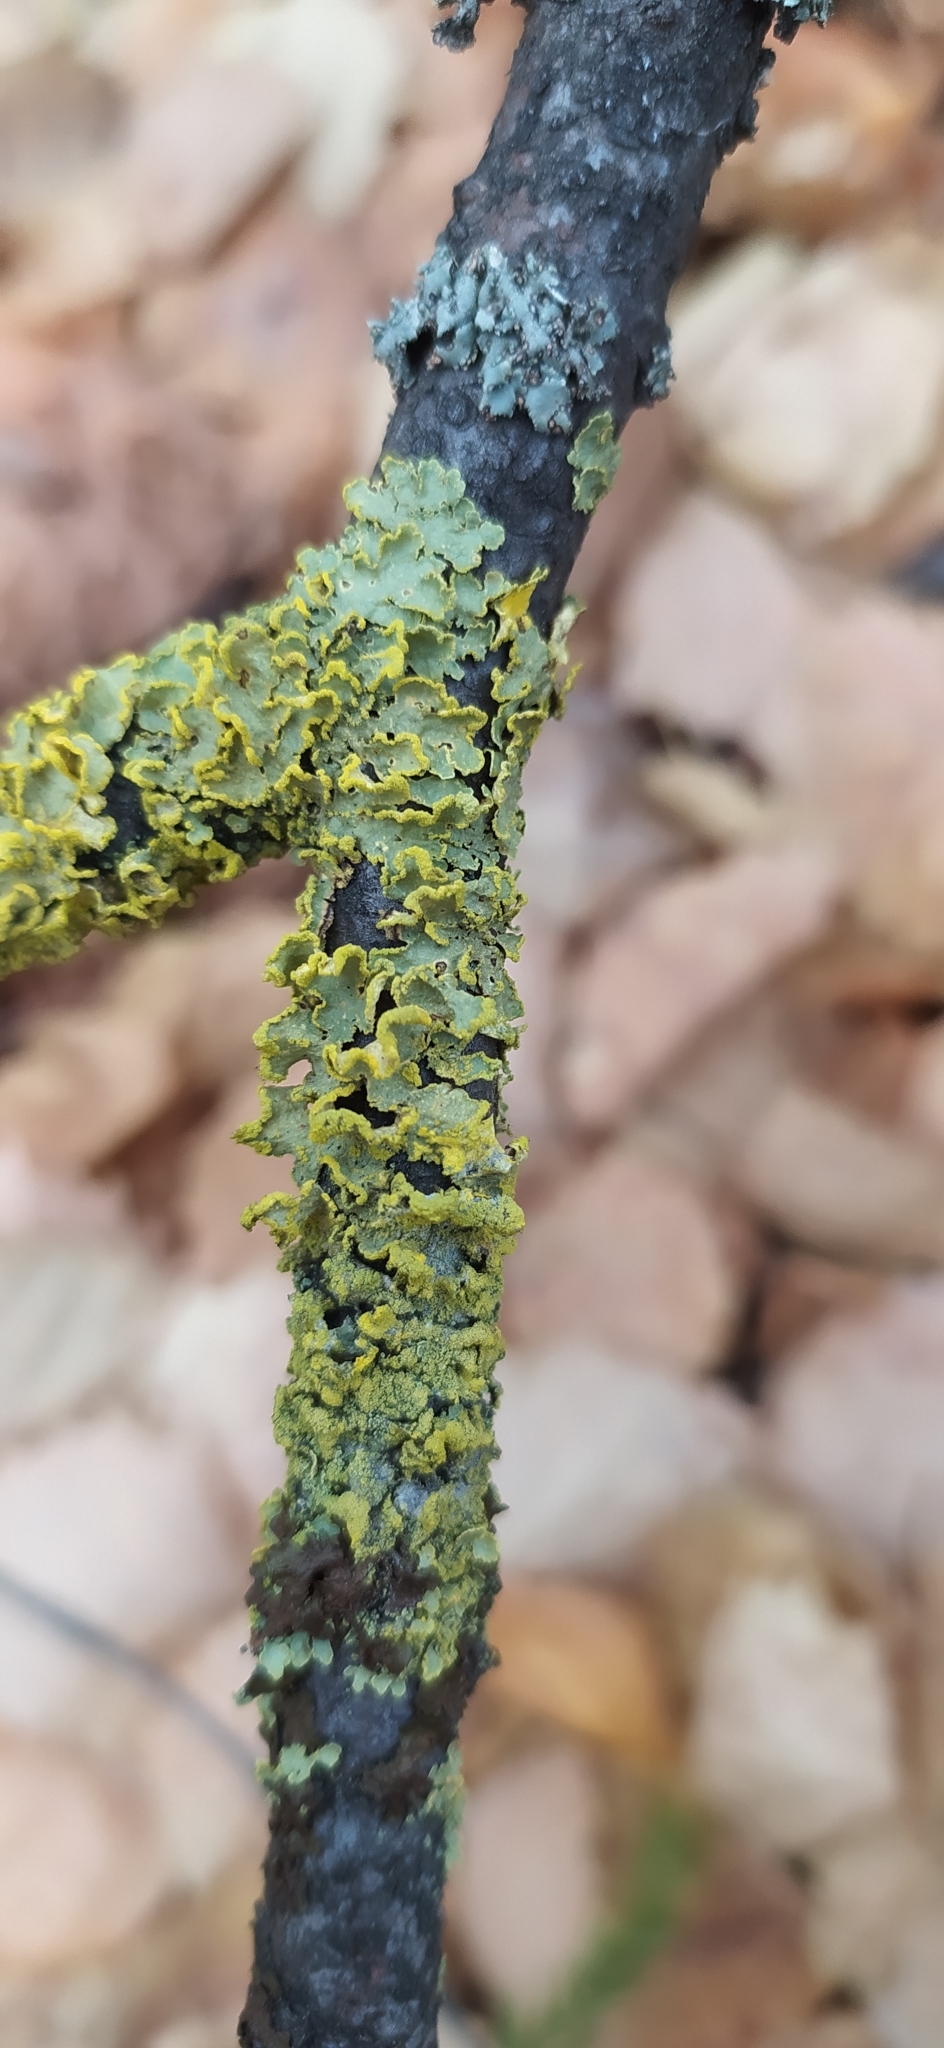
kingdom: Fungi
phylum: Ascomycota
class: Lecanoromycetes
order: Lecanorales
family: Parmeliaceae
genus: Vulpicida
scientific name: Vulpicida pinastri
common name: Powdered sunshine lichen
